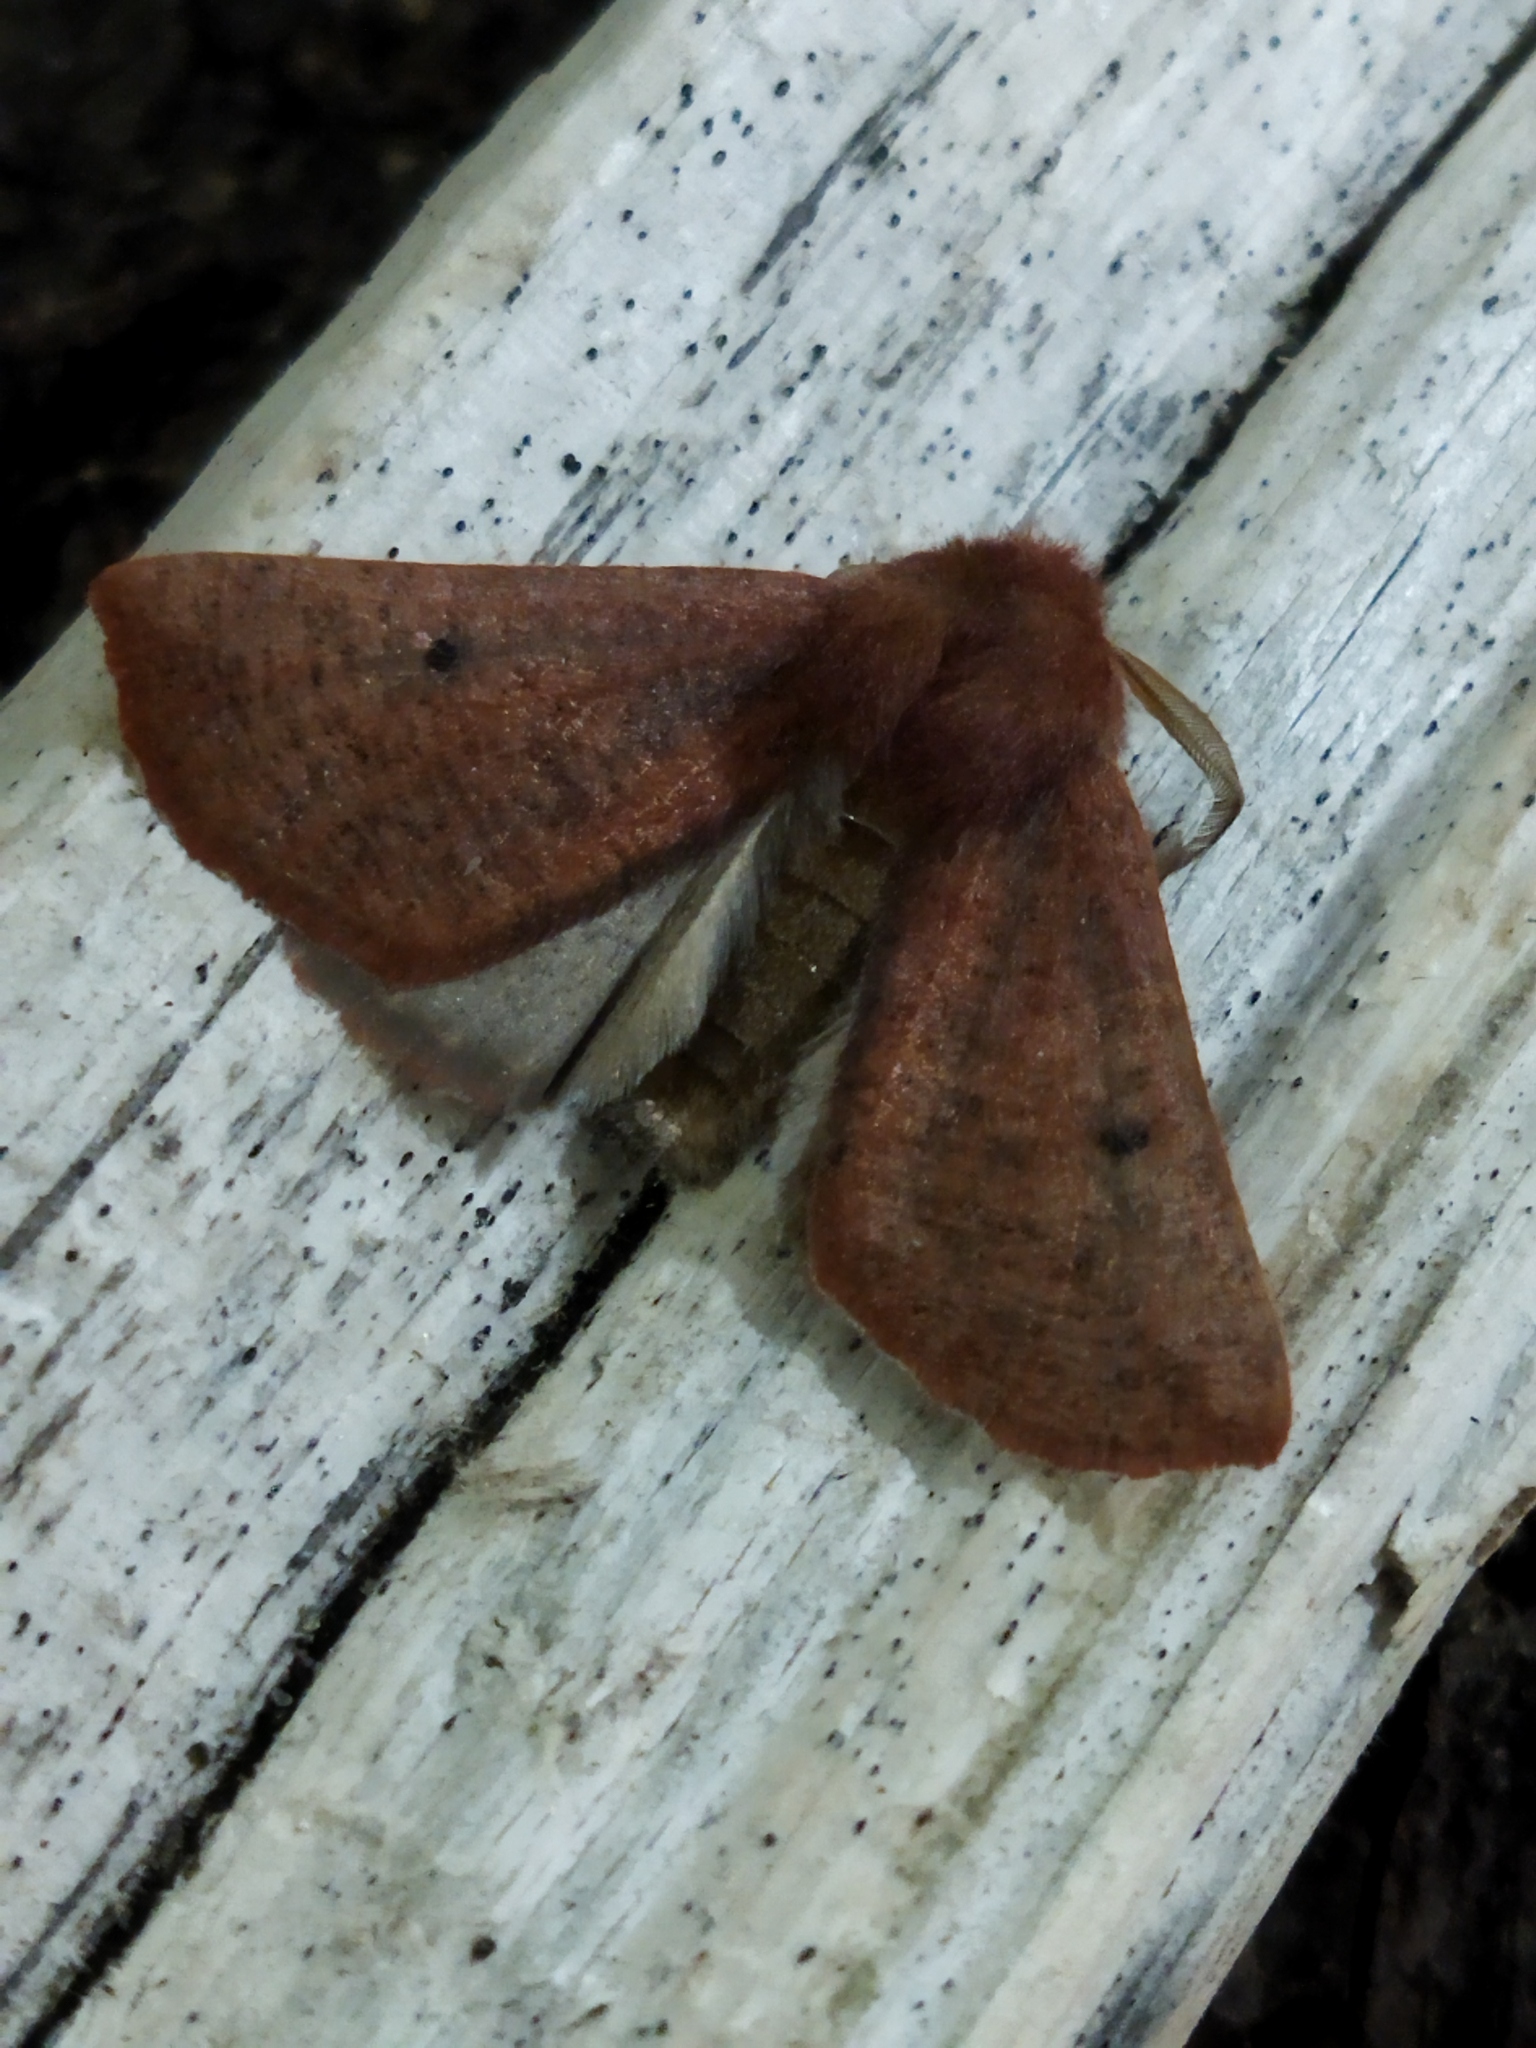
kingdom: Animalia
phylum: Arthropoda
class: Insecta
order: Lepidoptera
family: Geometridae
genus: Dasycorsa
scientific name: Dasycorsa modesta
